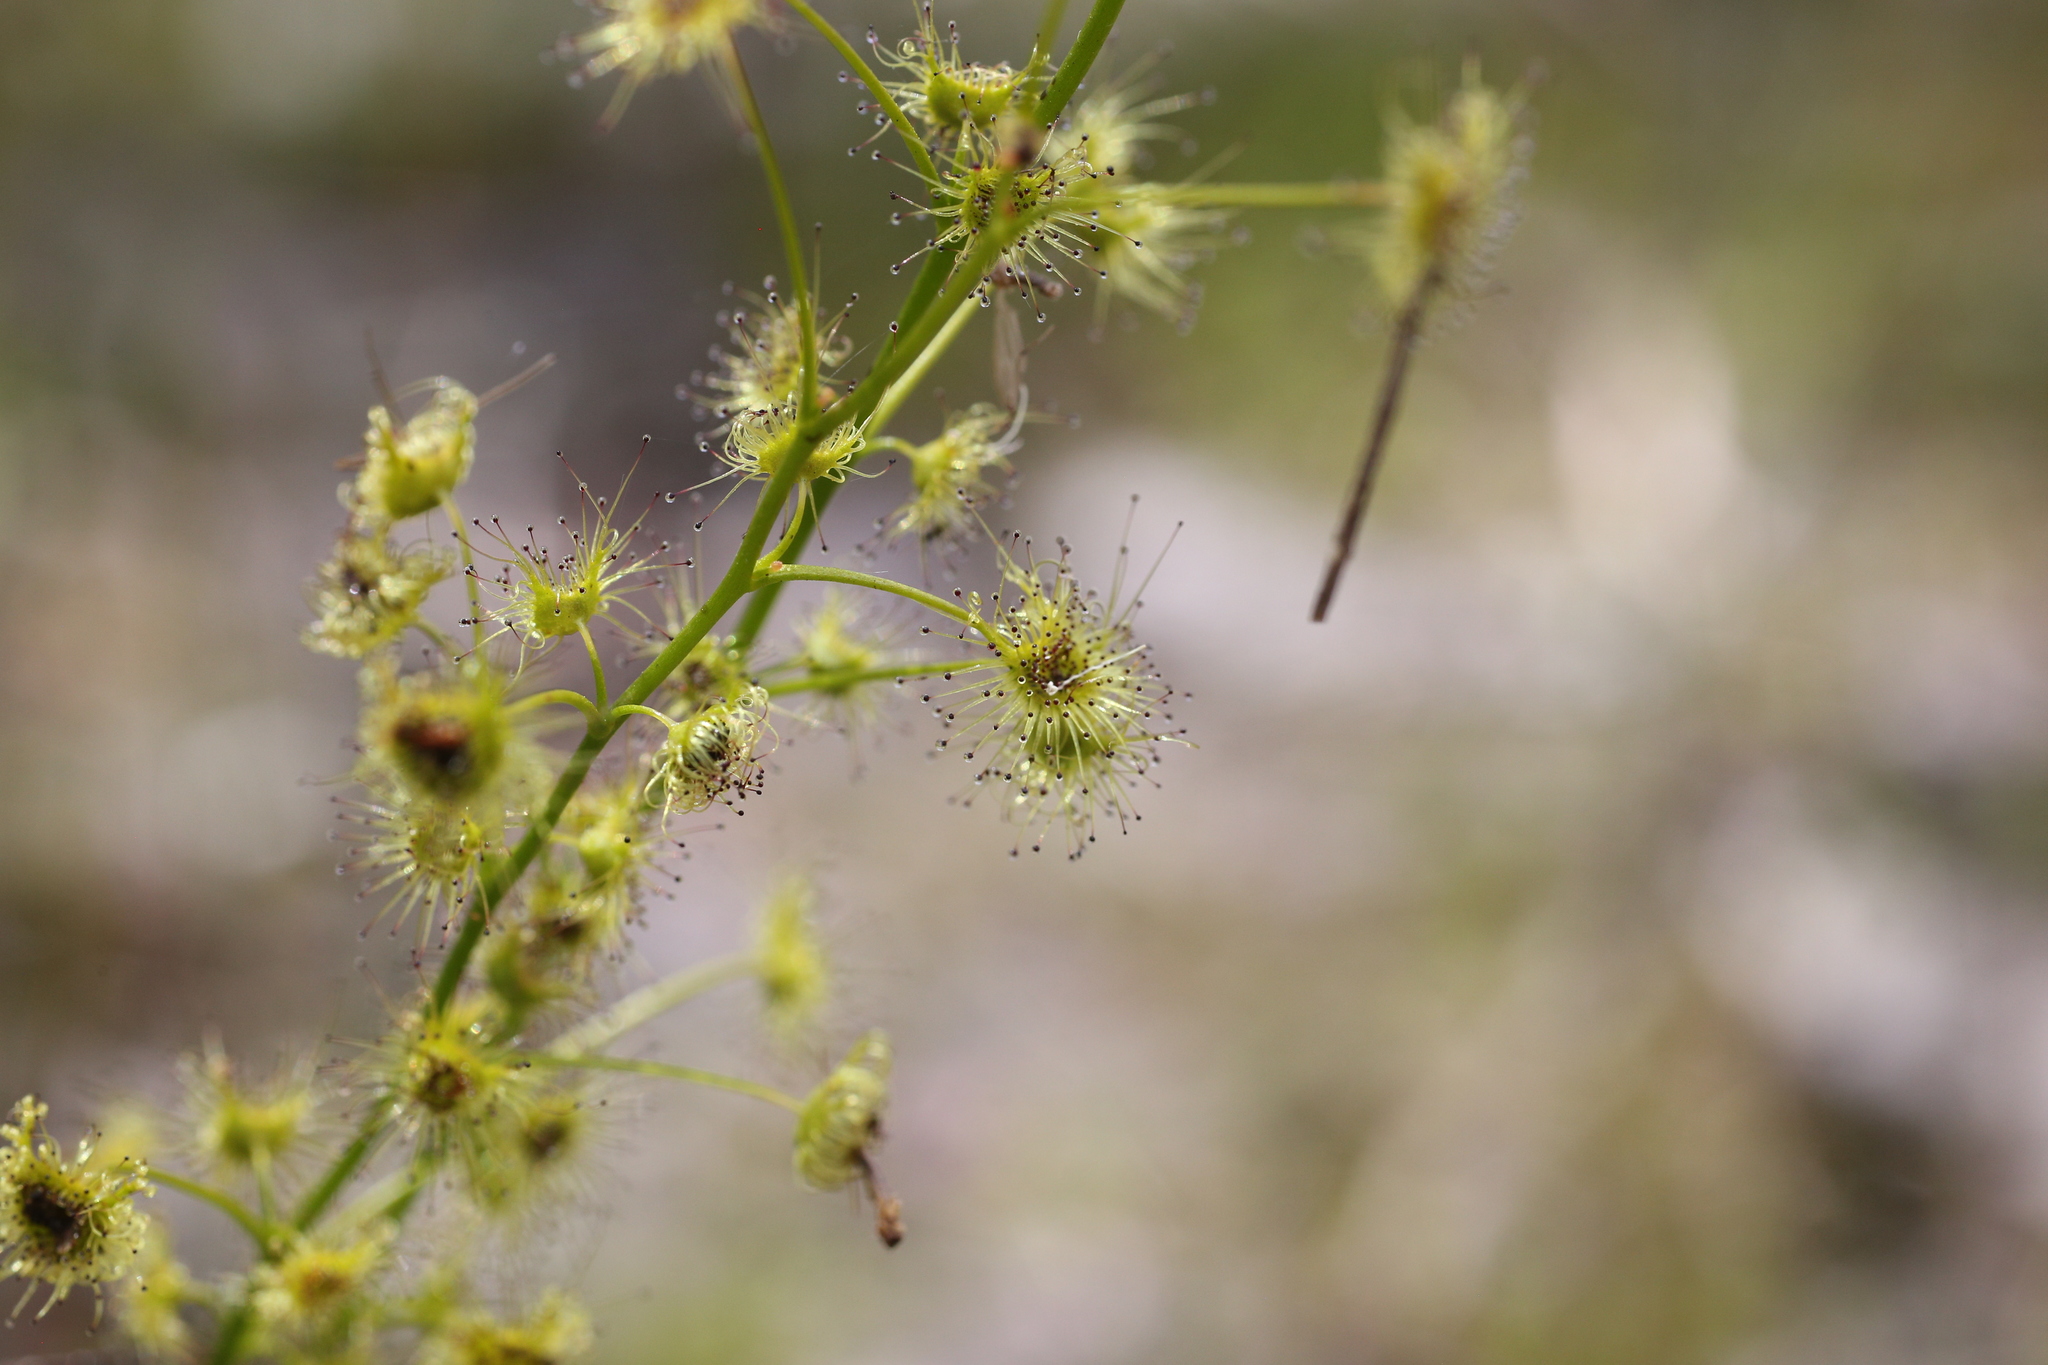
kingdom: Plantae
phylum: Tracheophyta
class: Magnoliopsida
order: Caryophyllales
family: Droseraceae
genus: Drosera
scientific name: Drosera neesii
